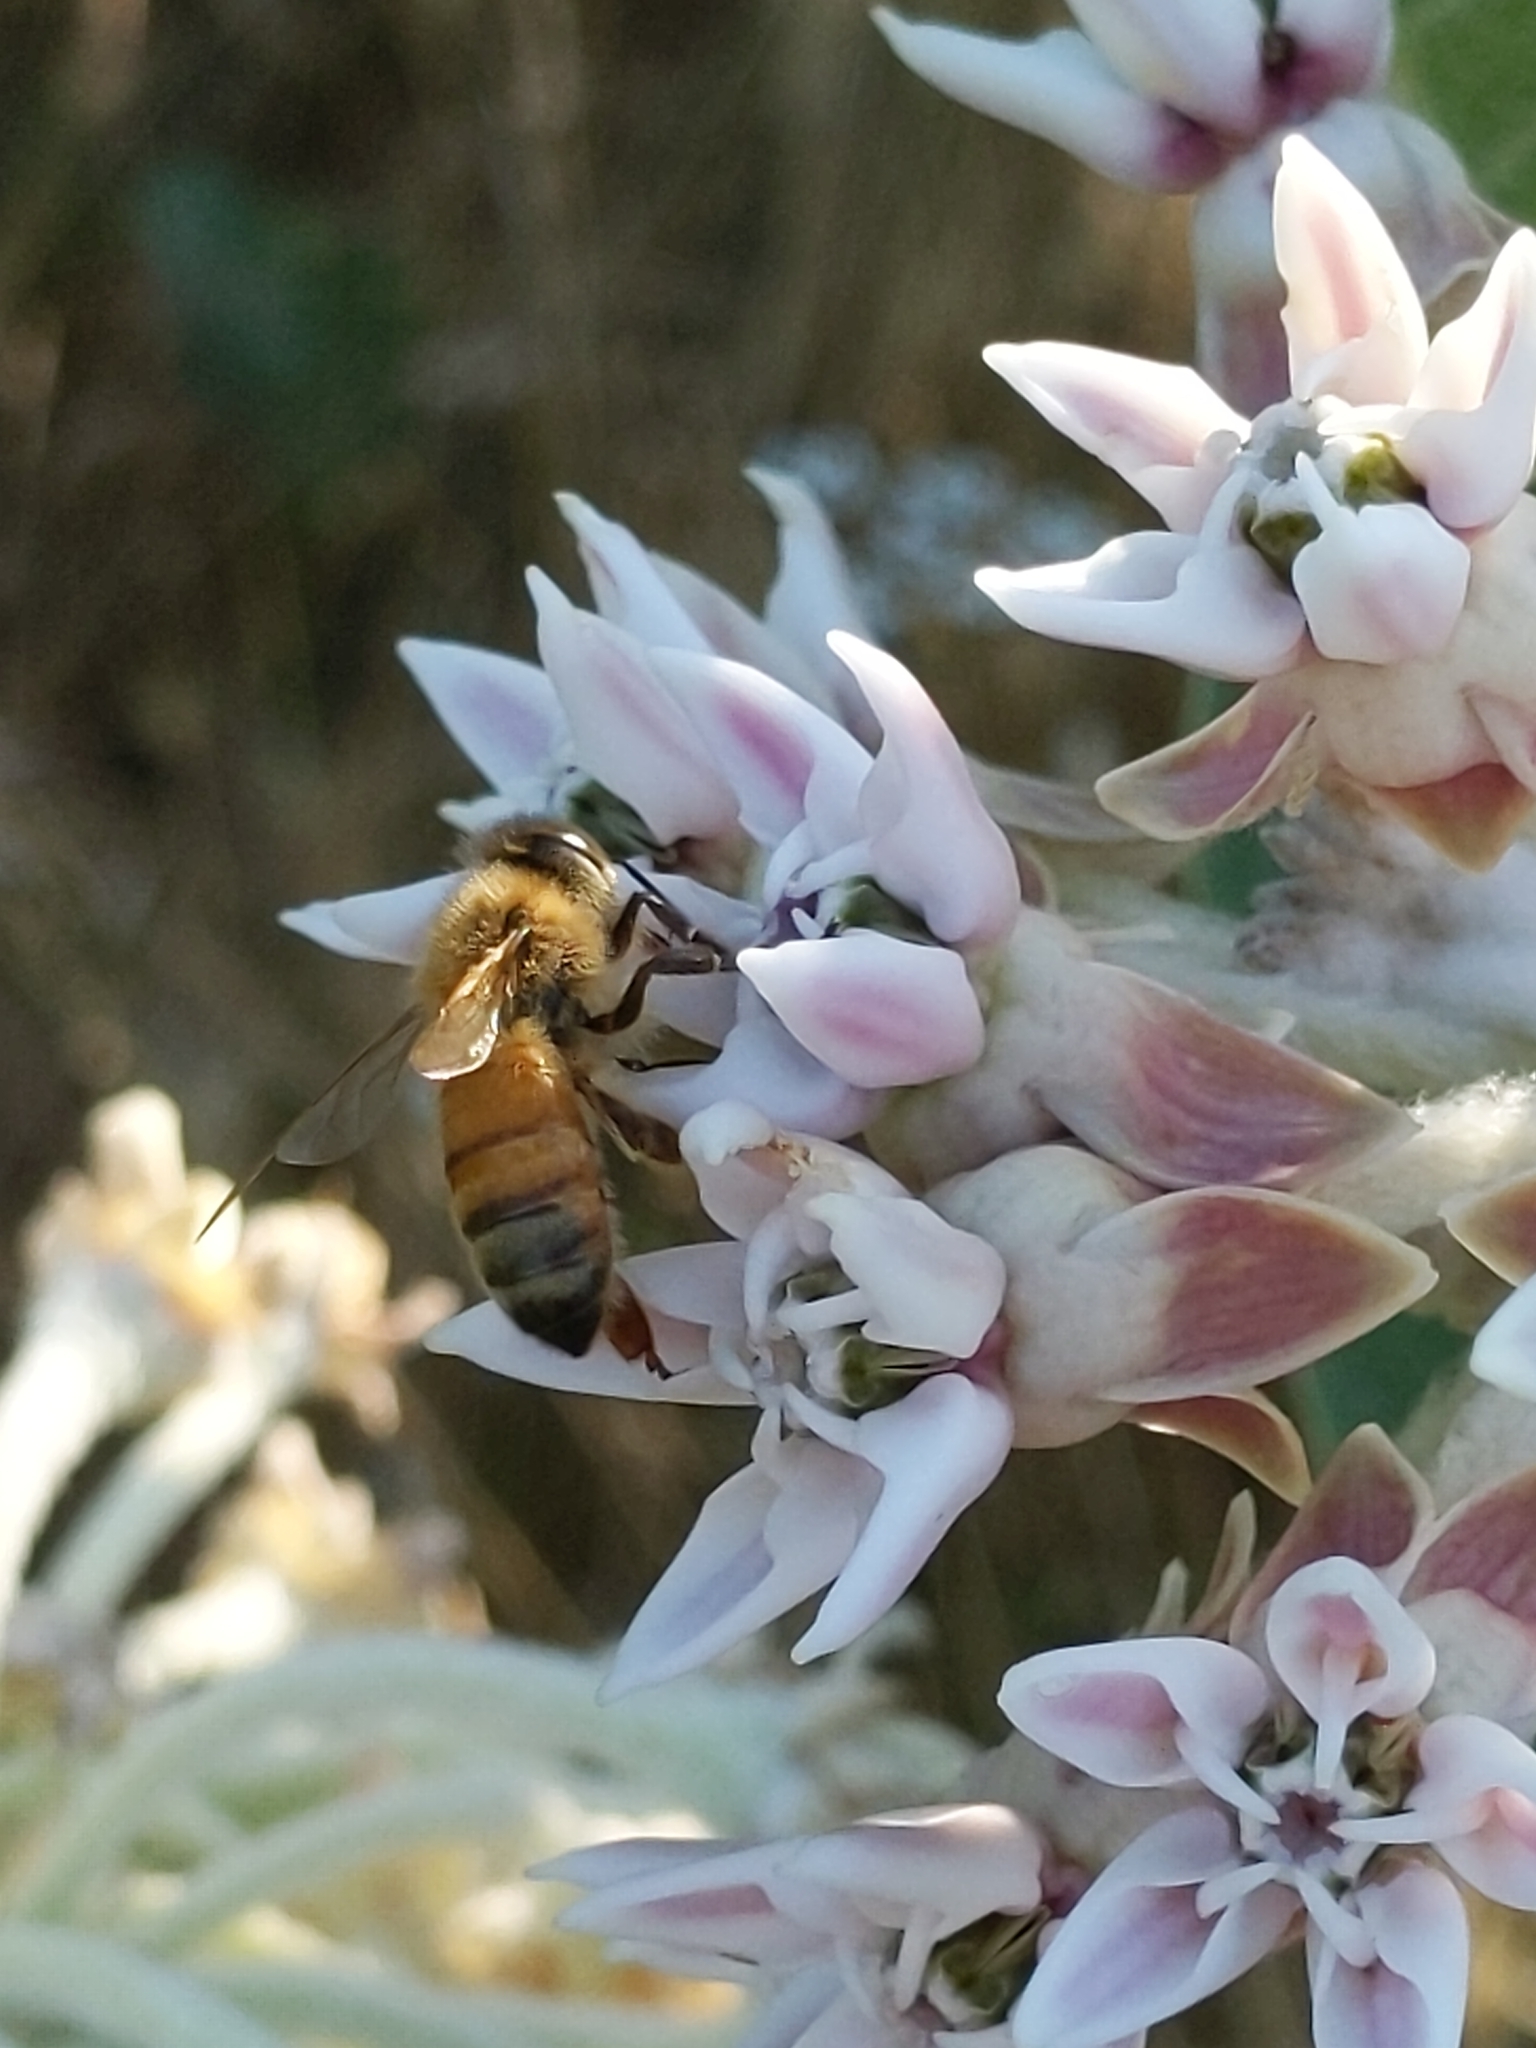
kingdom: Animalia
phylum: Arthropoda
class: Insecta
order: Hymenoptera
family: Apidae
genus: Apis
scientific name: Apis mellifera
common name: Honey bee
